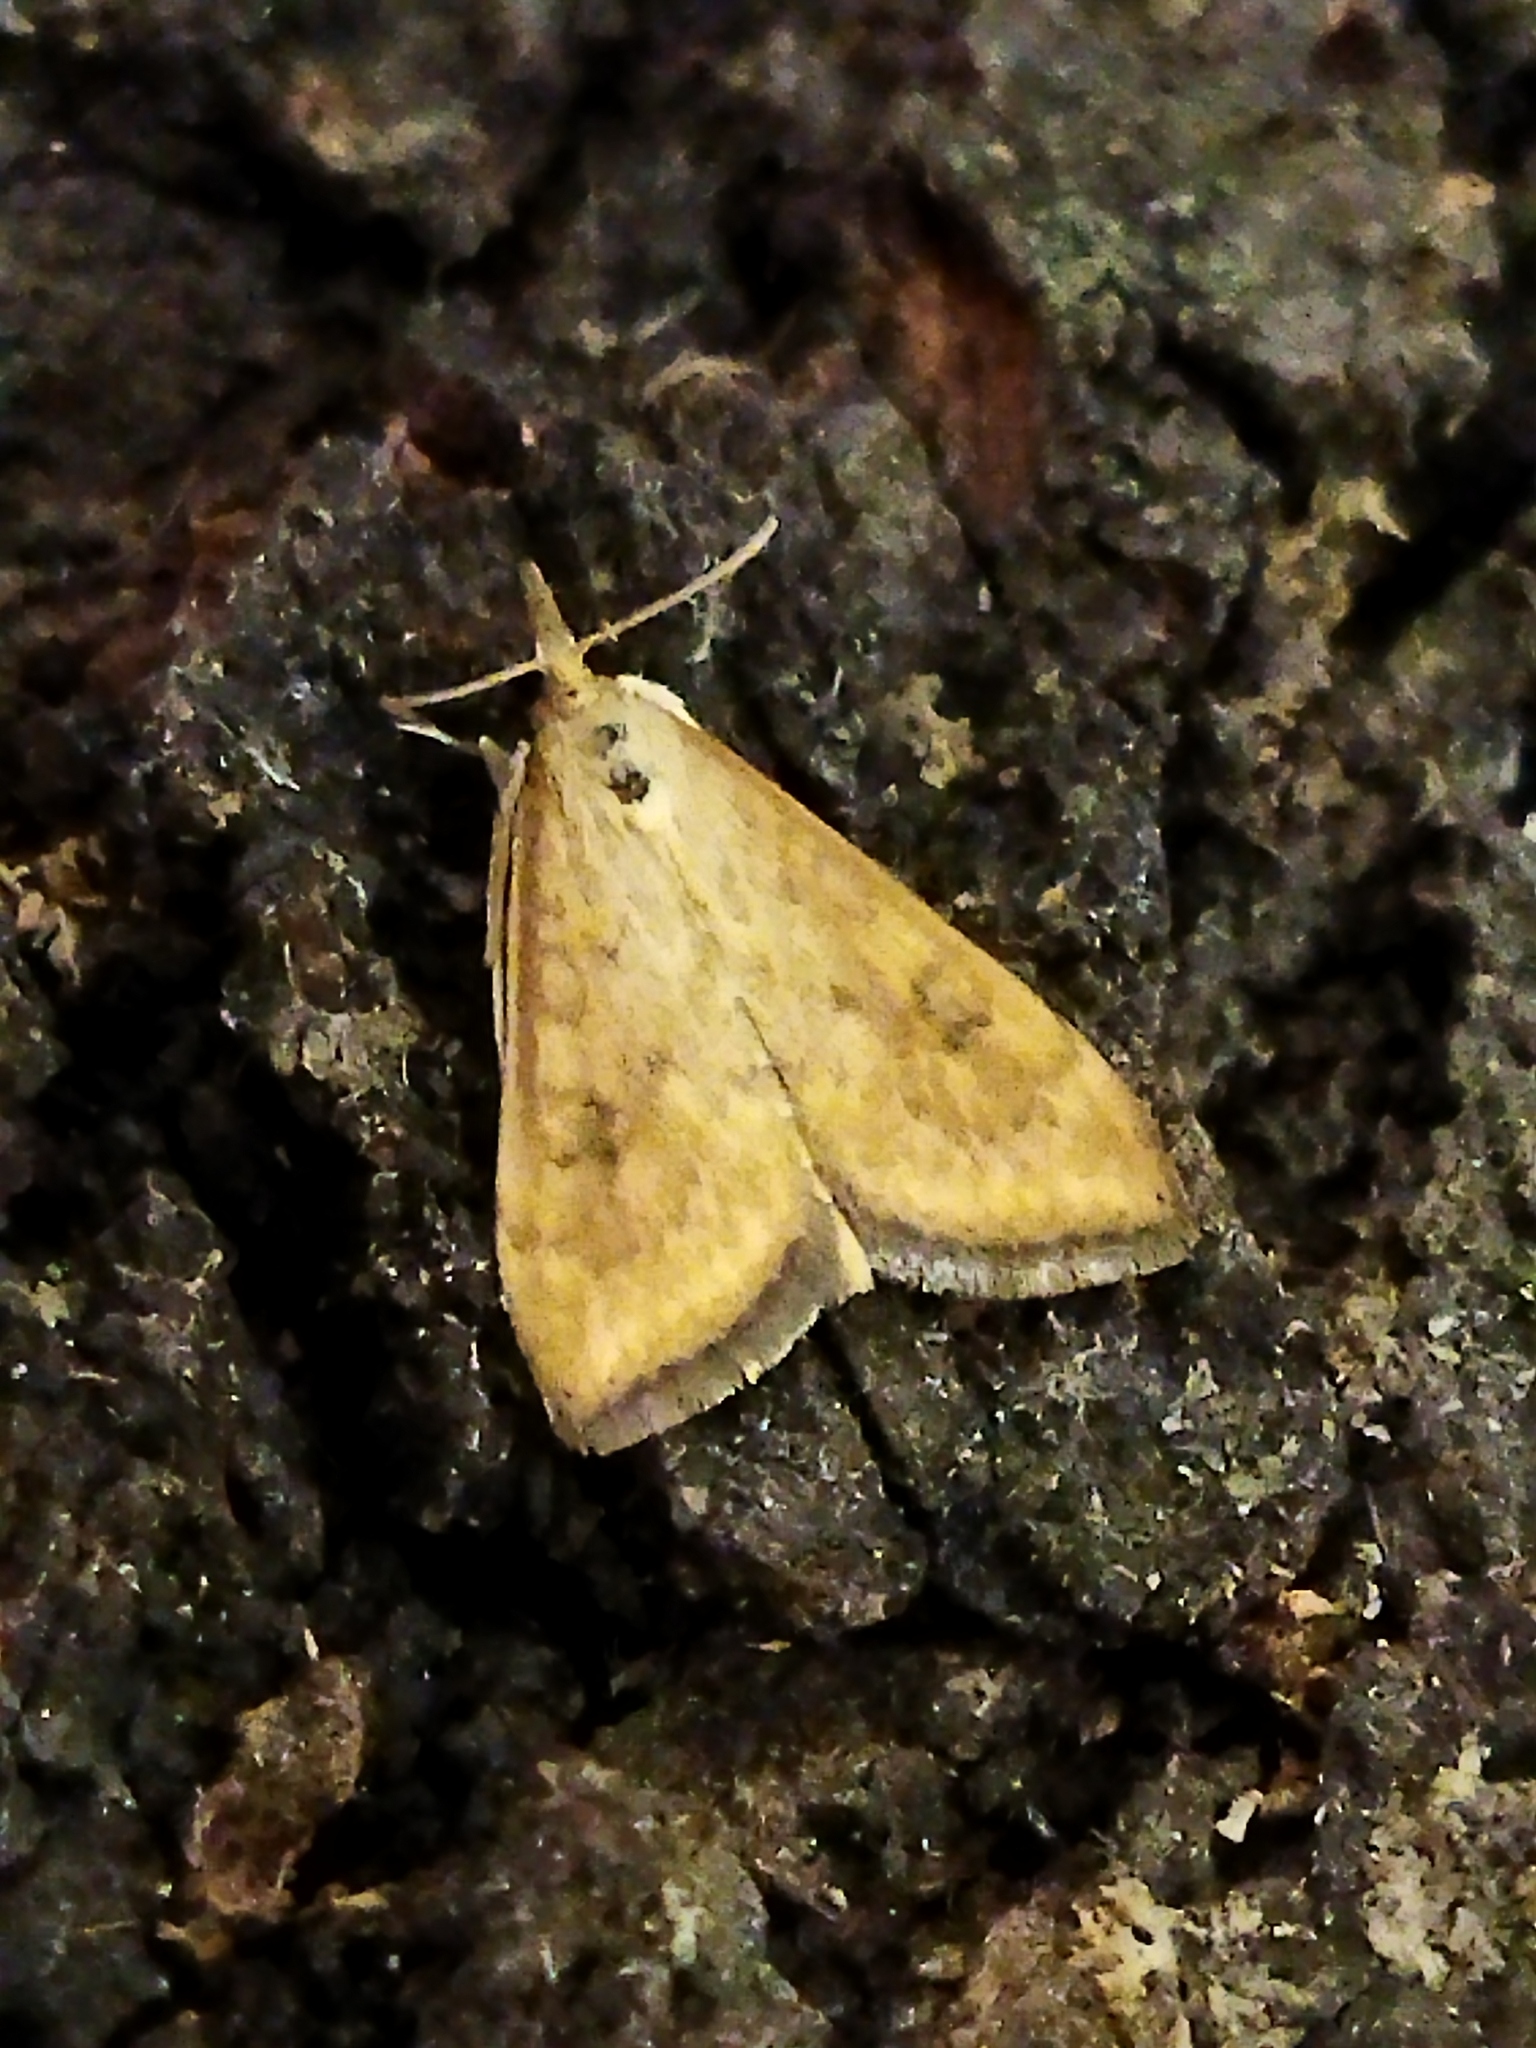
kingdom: Animalia
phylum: Arthropoda
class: Insecta
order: Lepidoptera
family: Crambidae
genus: Udea
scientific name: Udea ferrugalis
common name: Rusty dot
